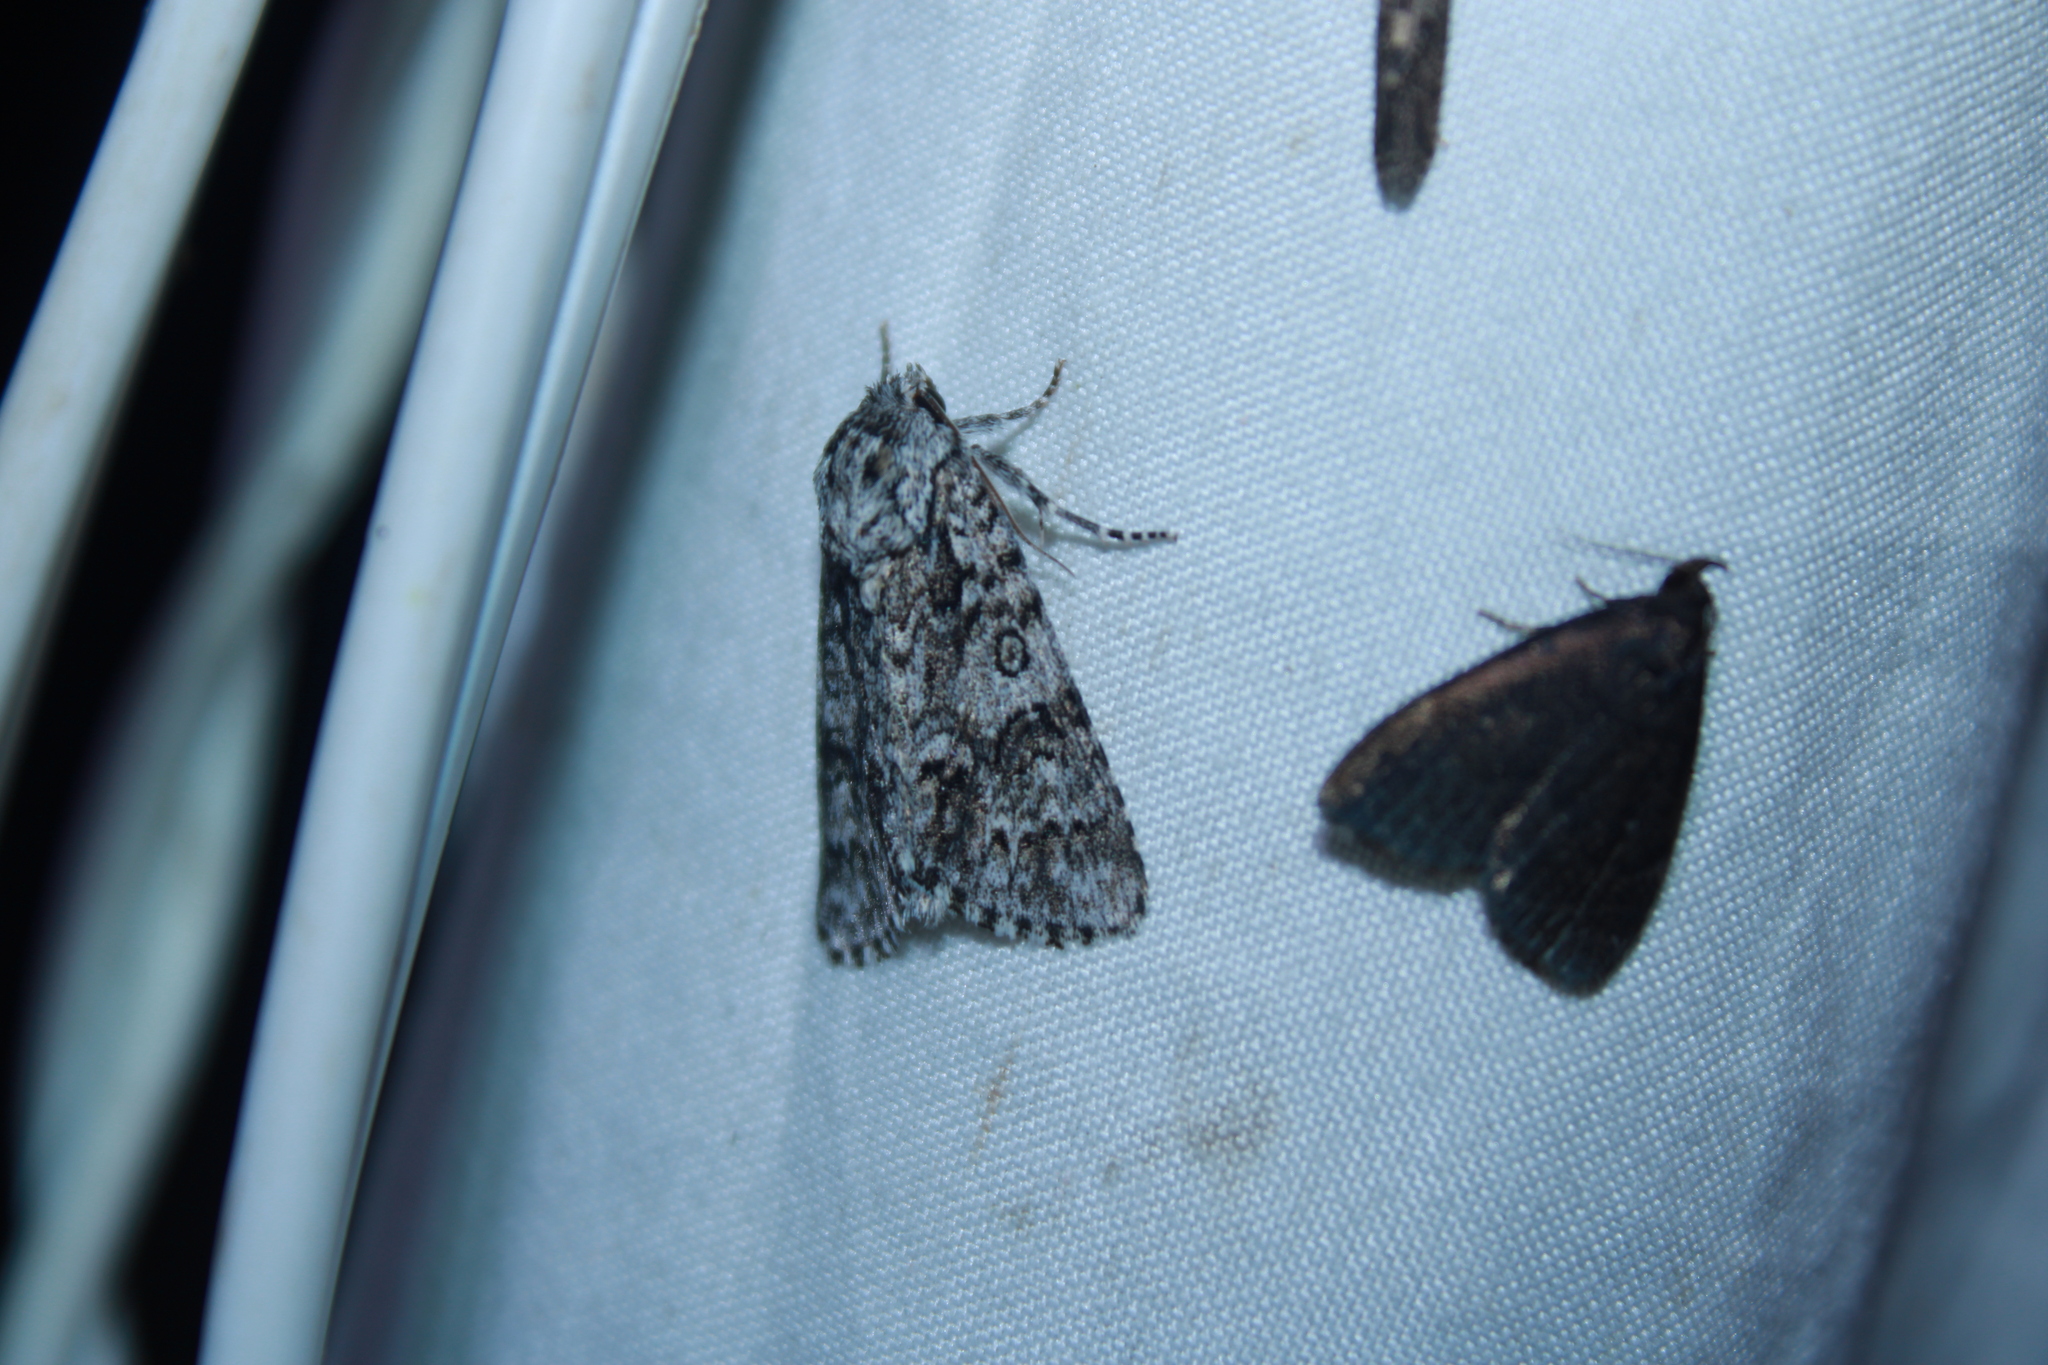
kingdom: Animalia
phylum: Arthropoda
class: Insecta
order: Lepidoptera
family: Noctuidae
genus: Acronicta
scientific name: Acronicta impressa
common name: Impressed dagger
